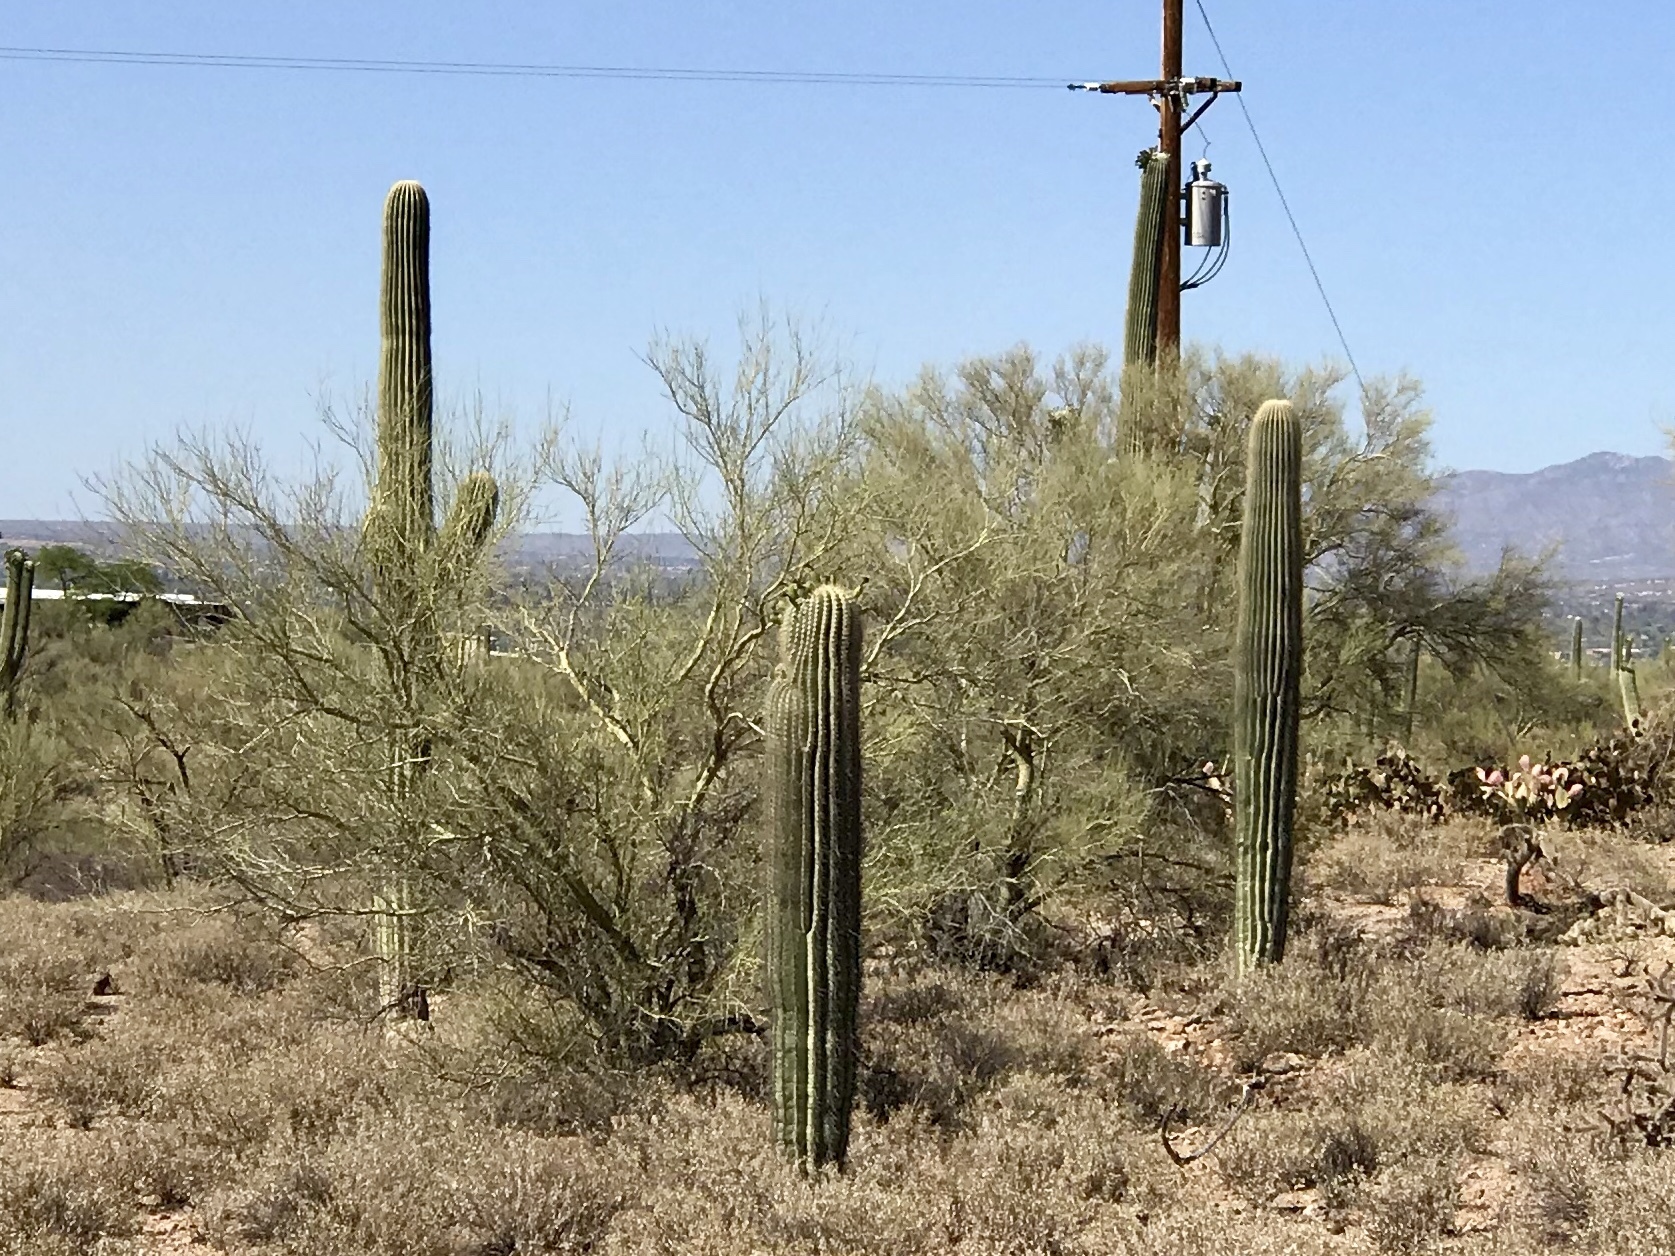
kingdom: Plantae
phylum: Tracheophyta
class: Magnoliopsida
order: Caryophyllales
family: Cactaceae
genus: Carnegiea
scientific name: Carnegiea gigantea
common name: Saguaro
